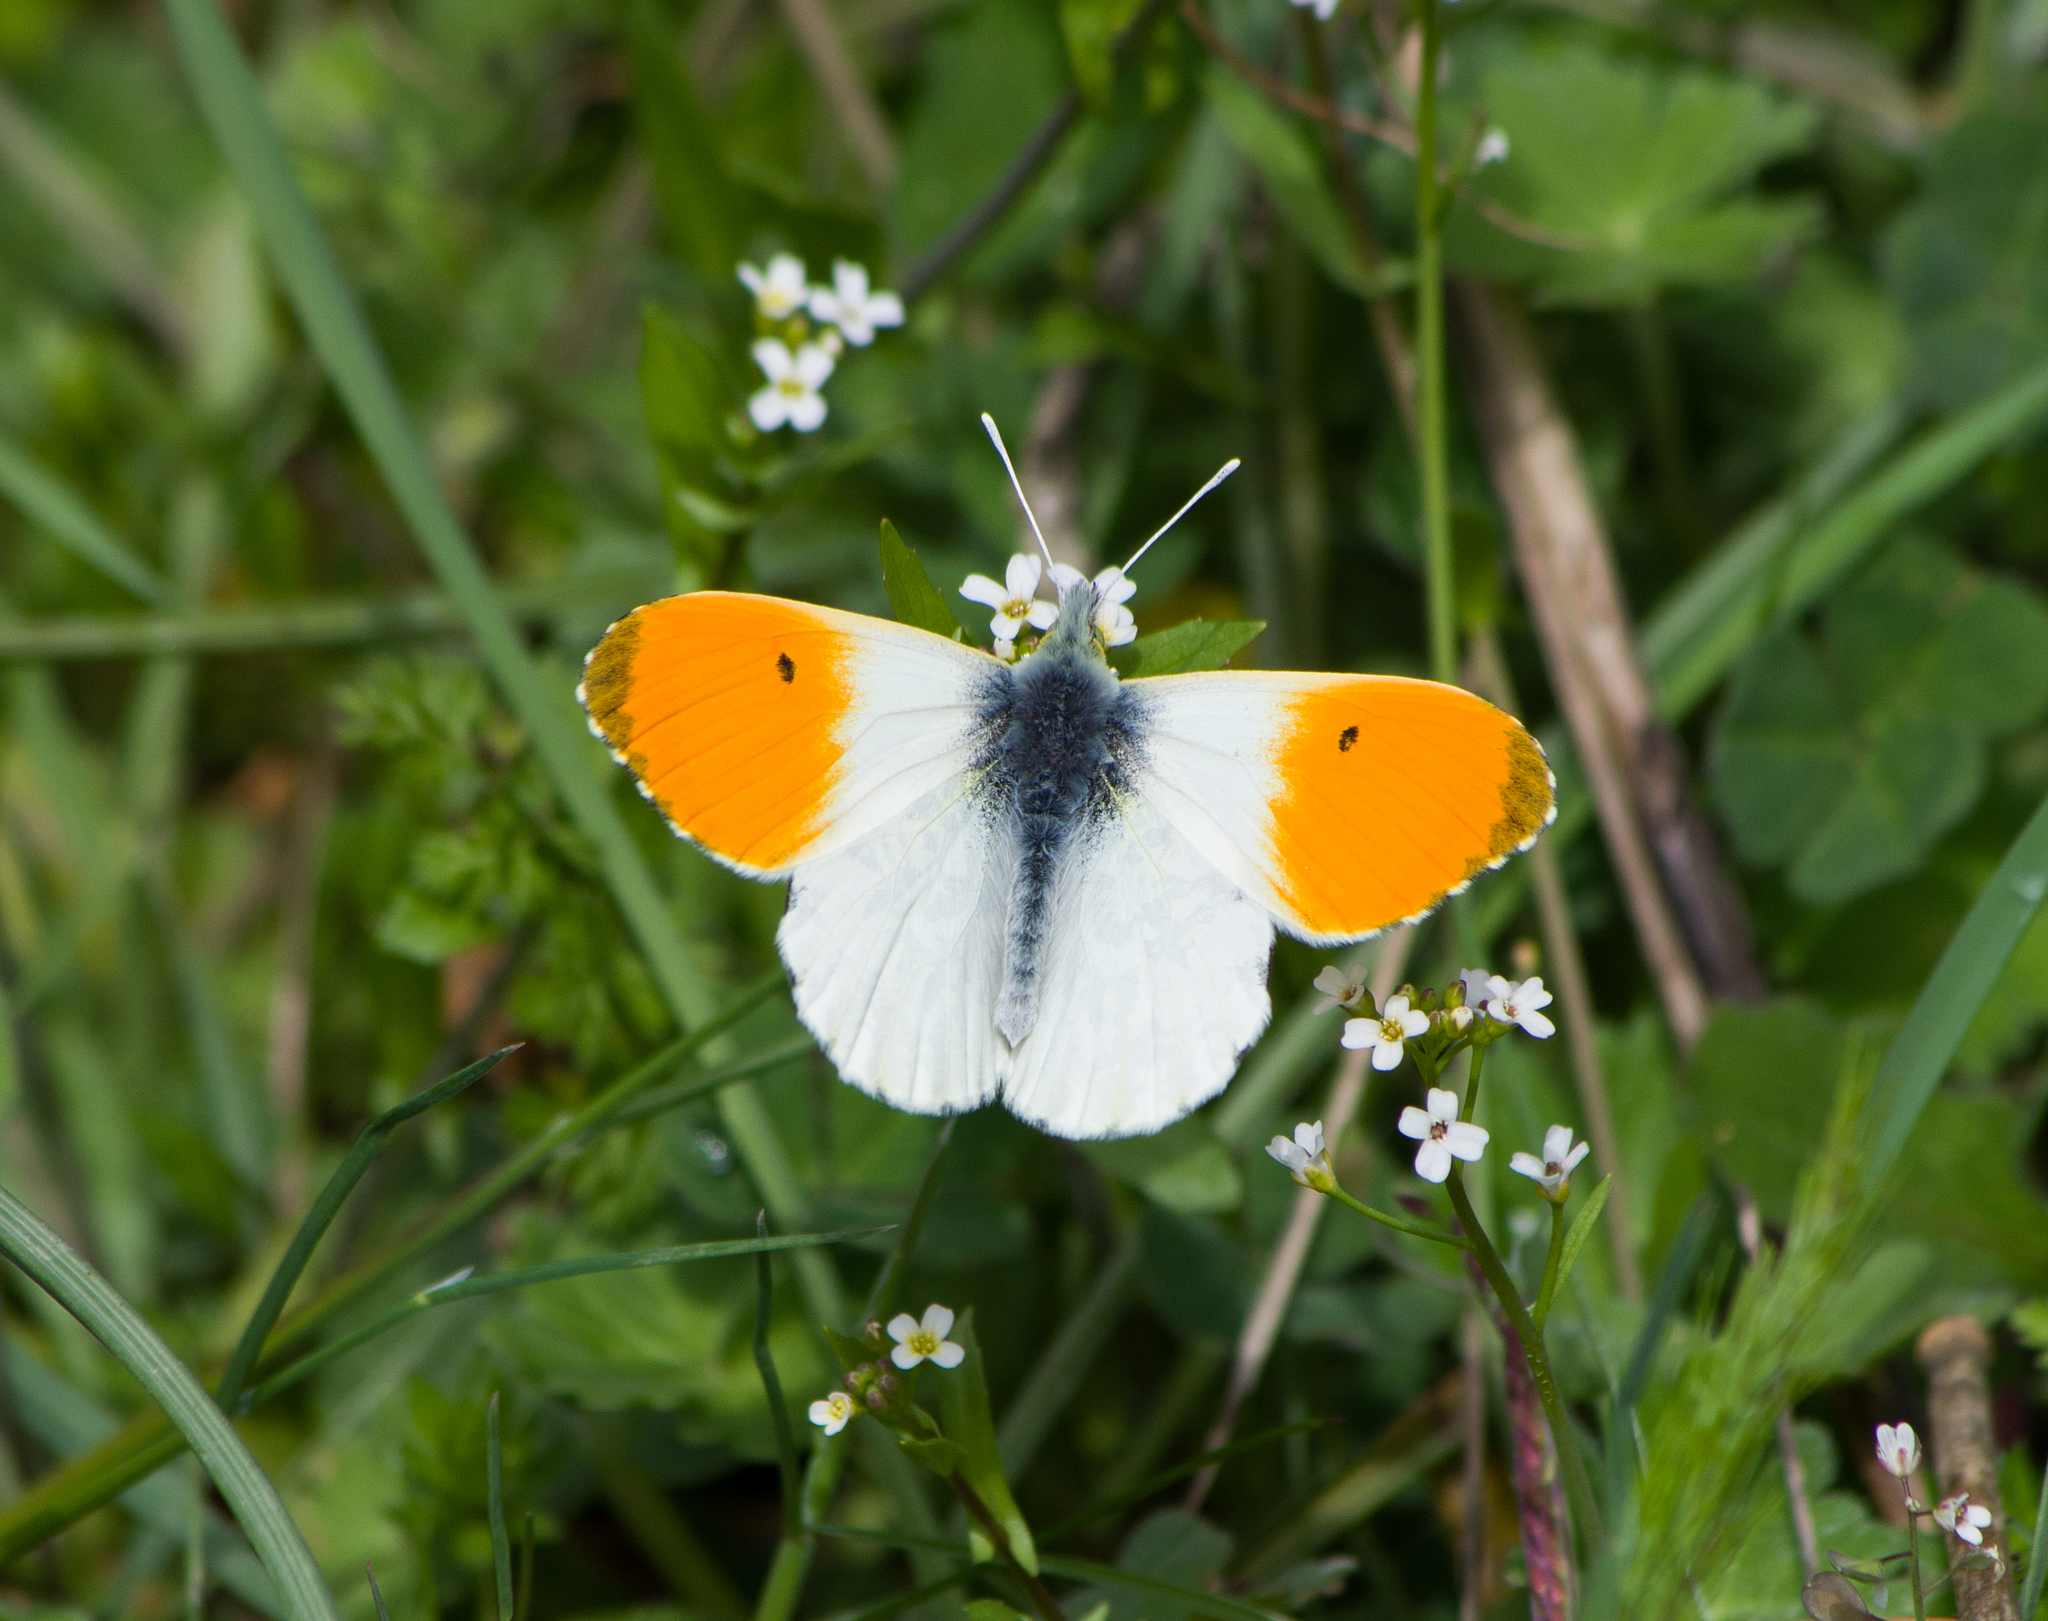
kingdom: Animalia
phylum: Arthropoda
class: Insecta
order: Lepidoptera
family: Pieridae
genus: Anthocharis
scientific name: Anthocharis cardamines
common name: Orange-tip
